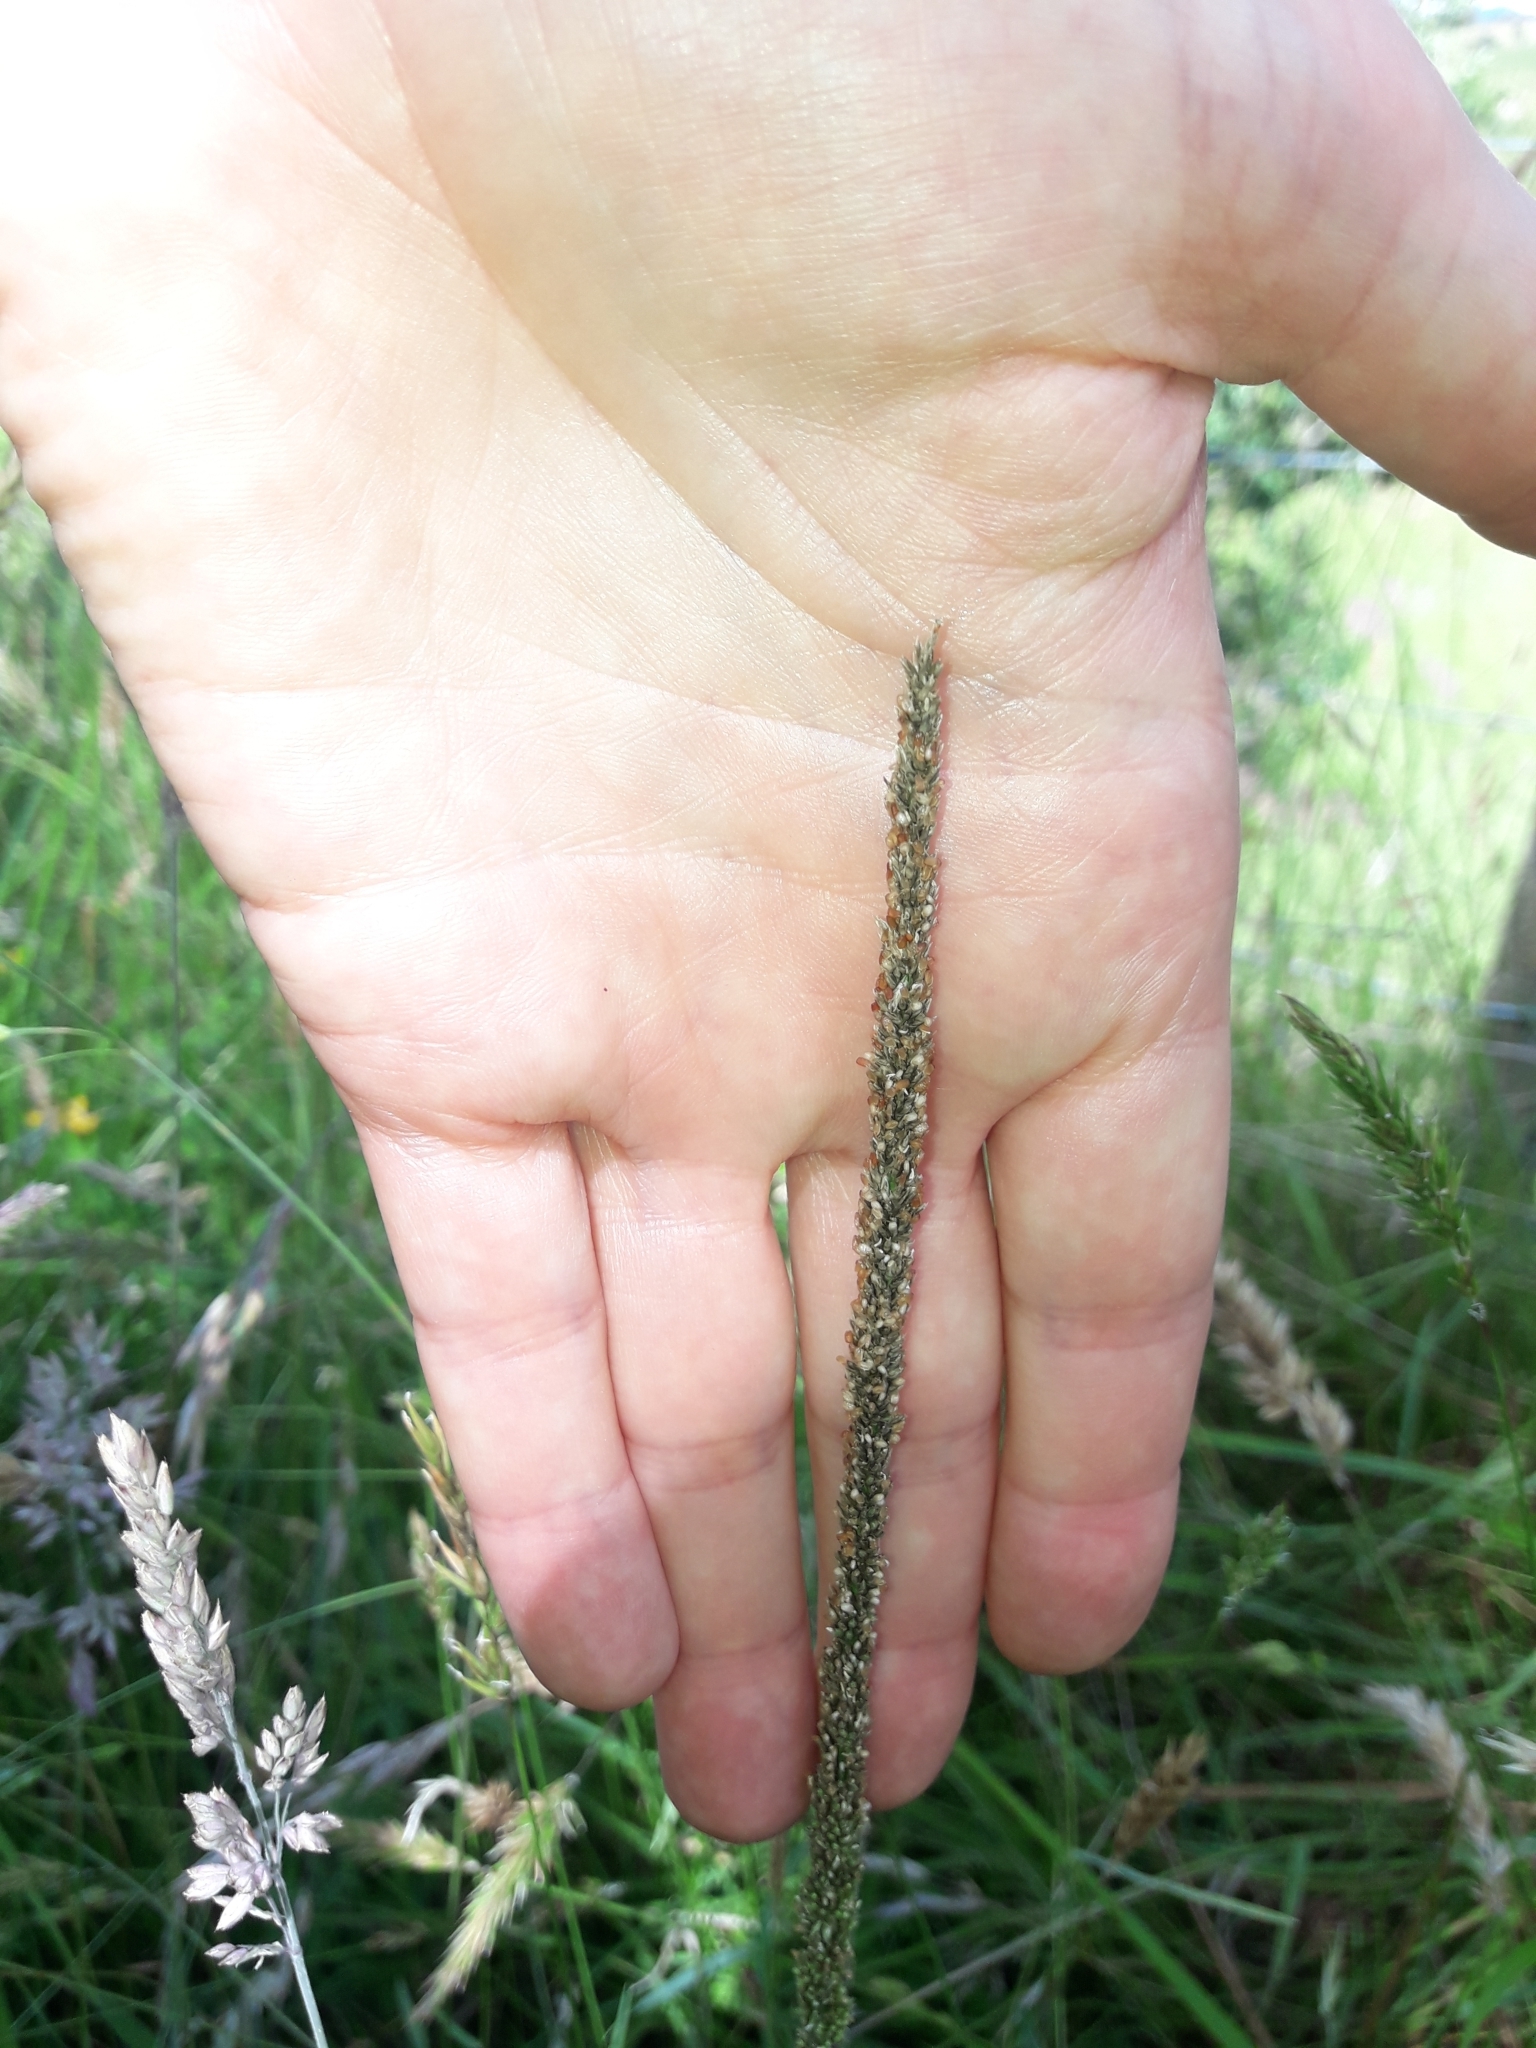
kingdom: Plantae
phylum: Tracheophyta
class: Liliopsida
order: Poales
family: Poaceae
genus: Sporobolus
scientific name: Sporobolus africanus
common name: African dropseed
